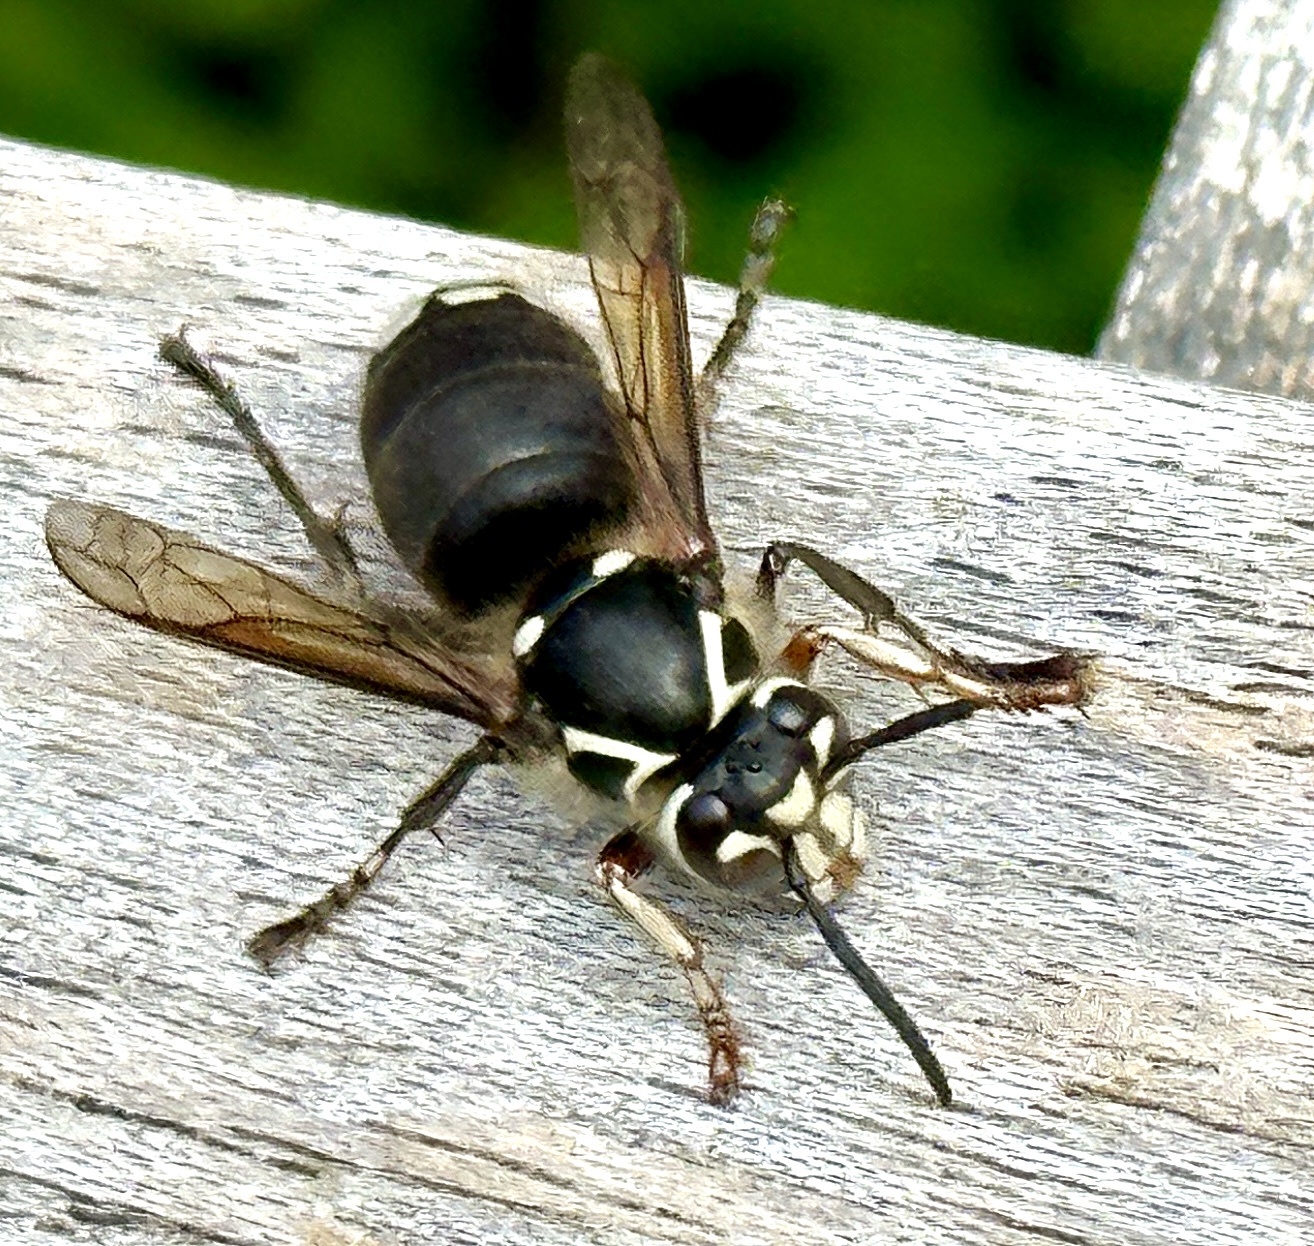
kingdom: Animalia
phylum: Arthropoda
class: Insecta
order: Hymenoptera
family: Vespidae
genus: Dolichovespula
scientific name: Dolichovespula maculata
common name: Bald-faced hornet
